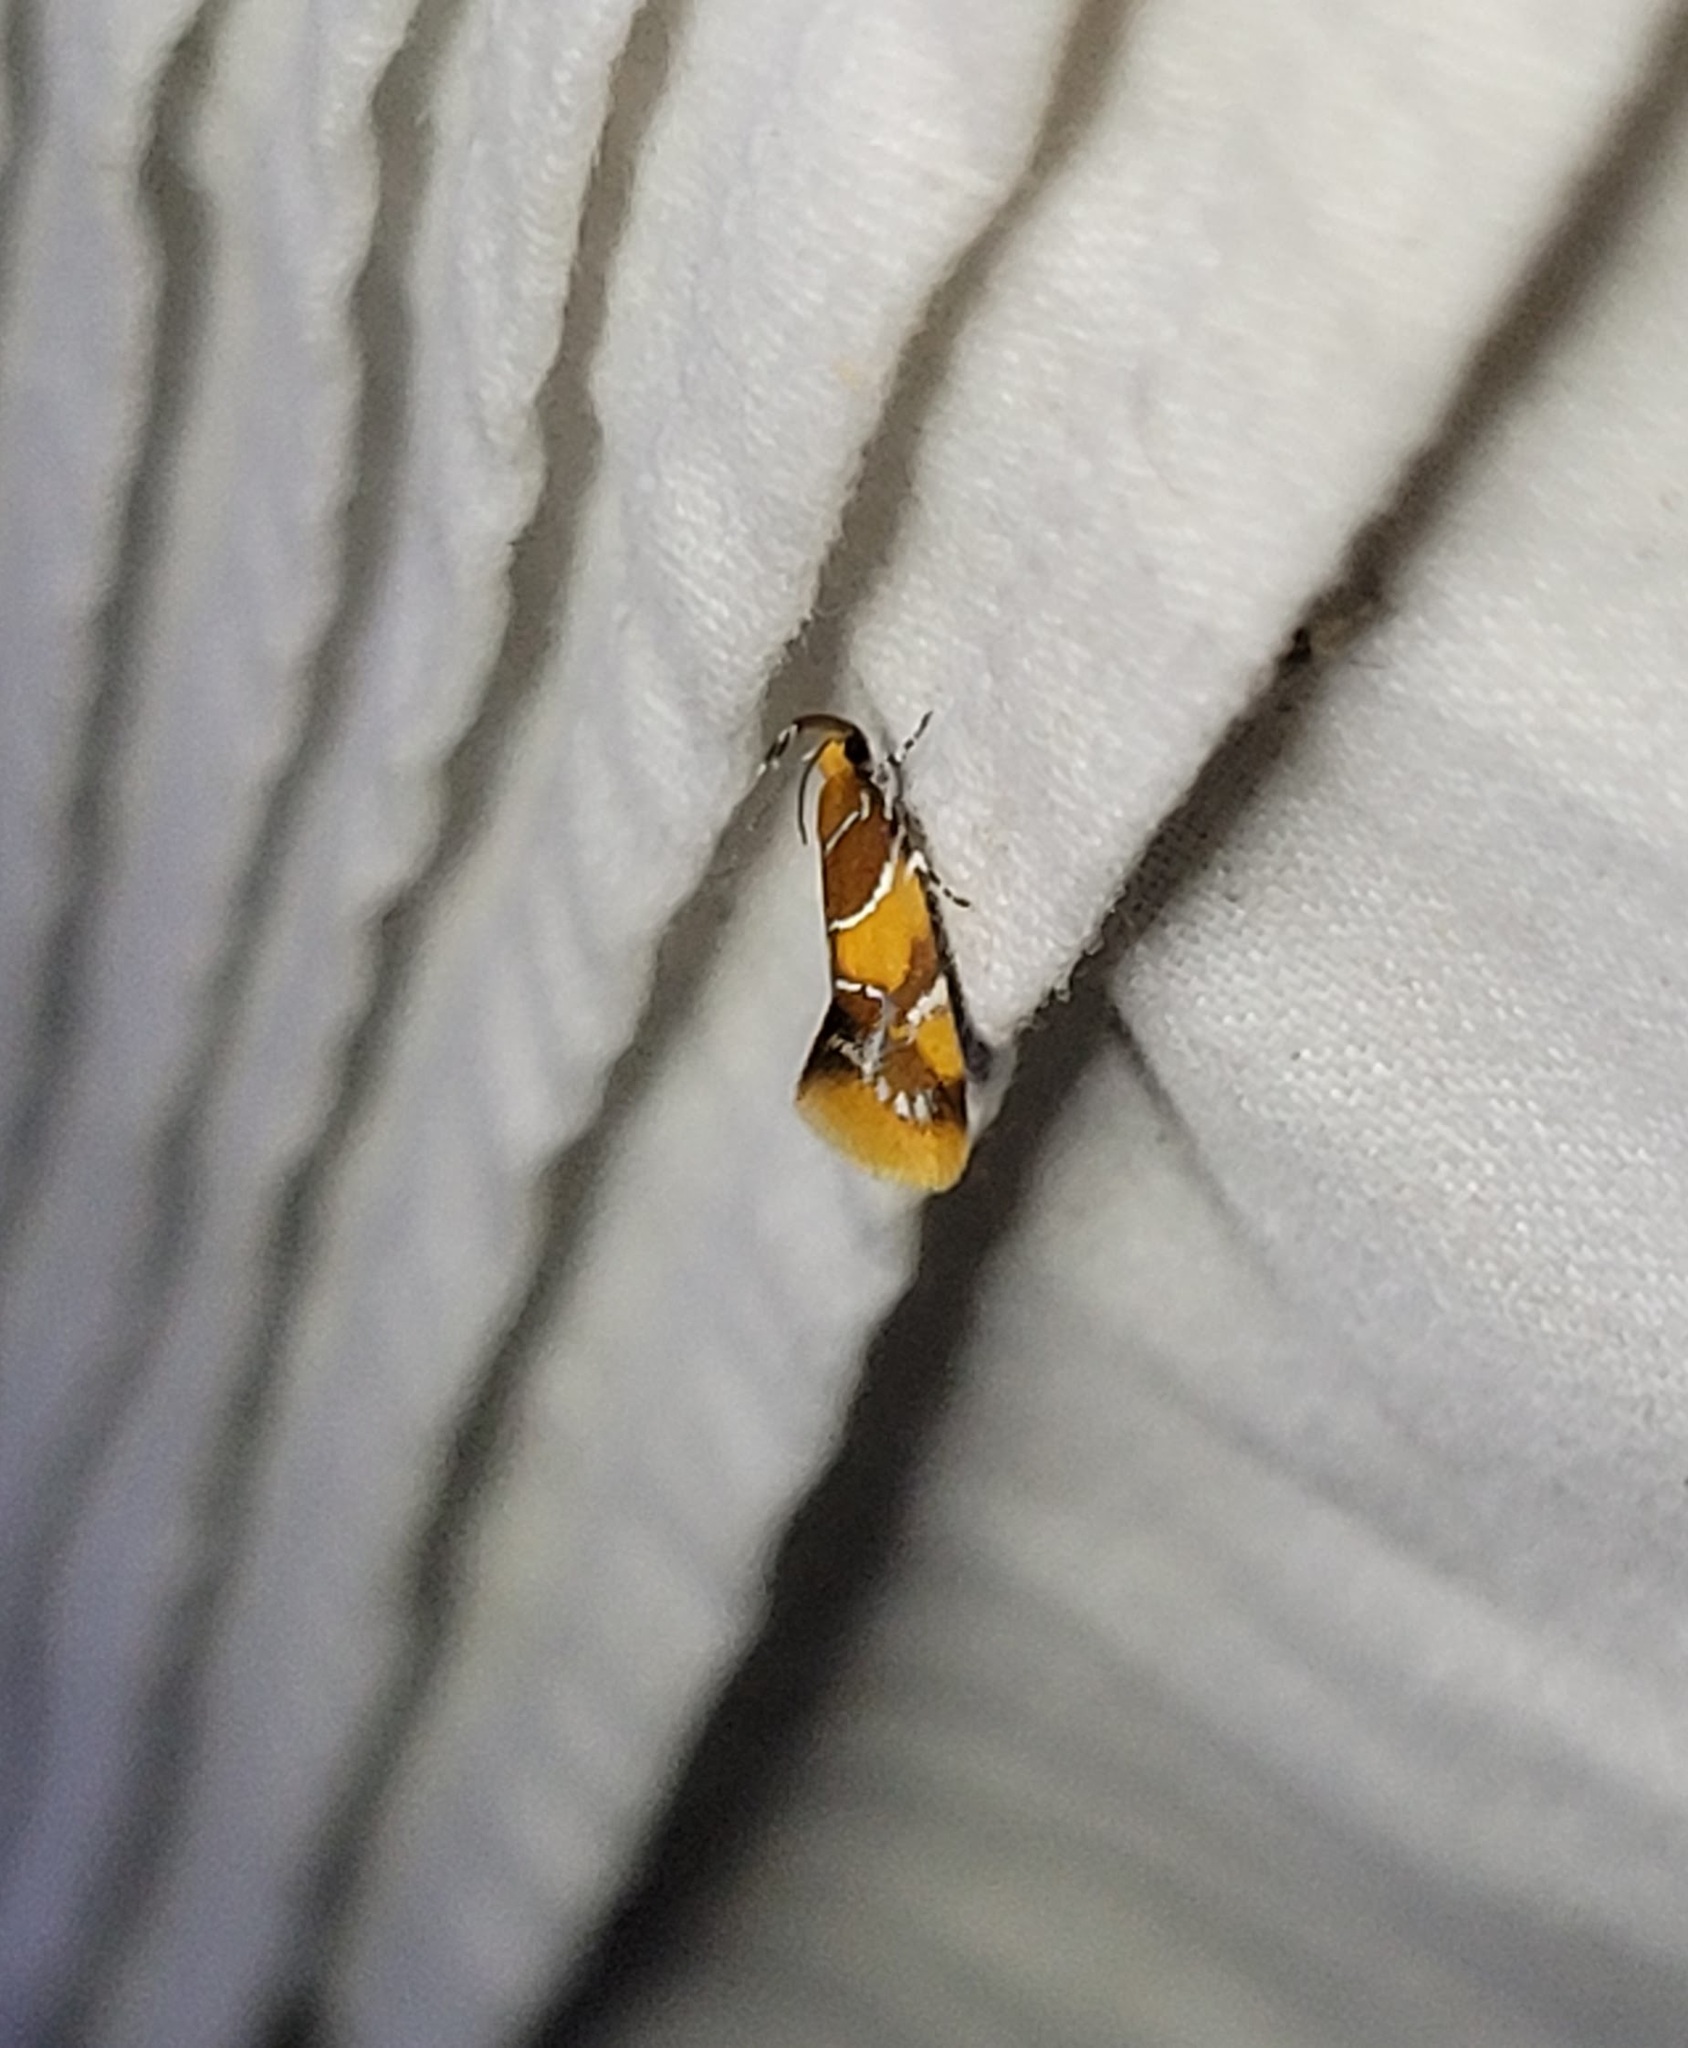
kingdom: Animalia
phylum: Arthropoda
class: Insecta
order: Lepidoptera
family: Oecophoridae
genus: Callima
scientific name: Callima argenticinctella
